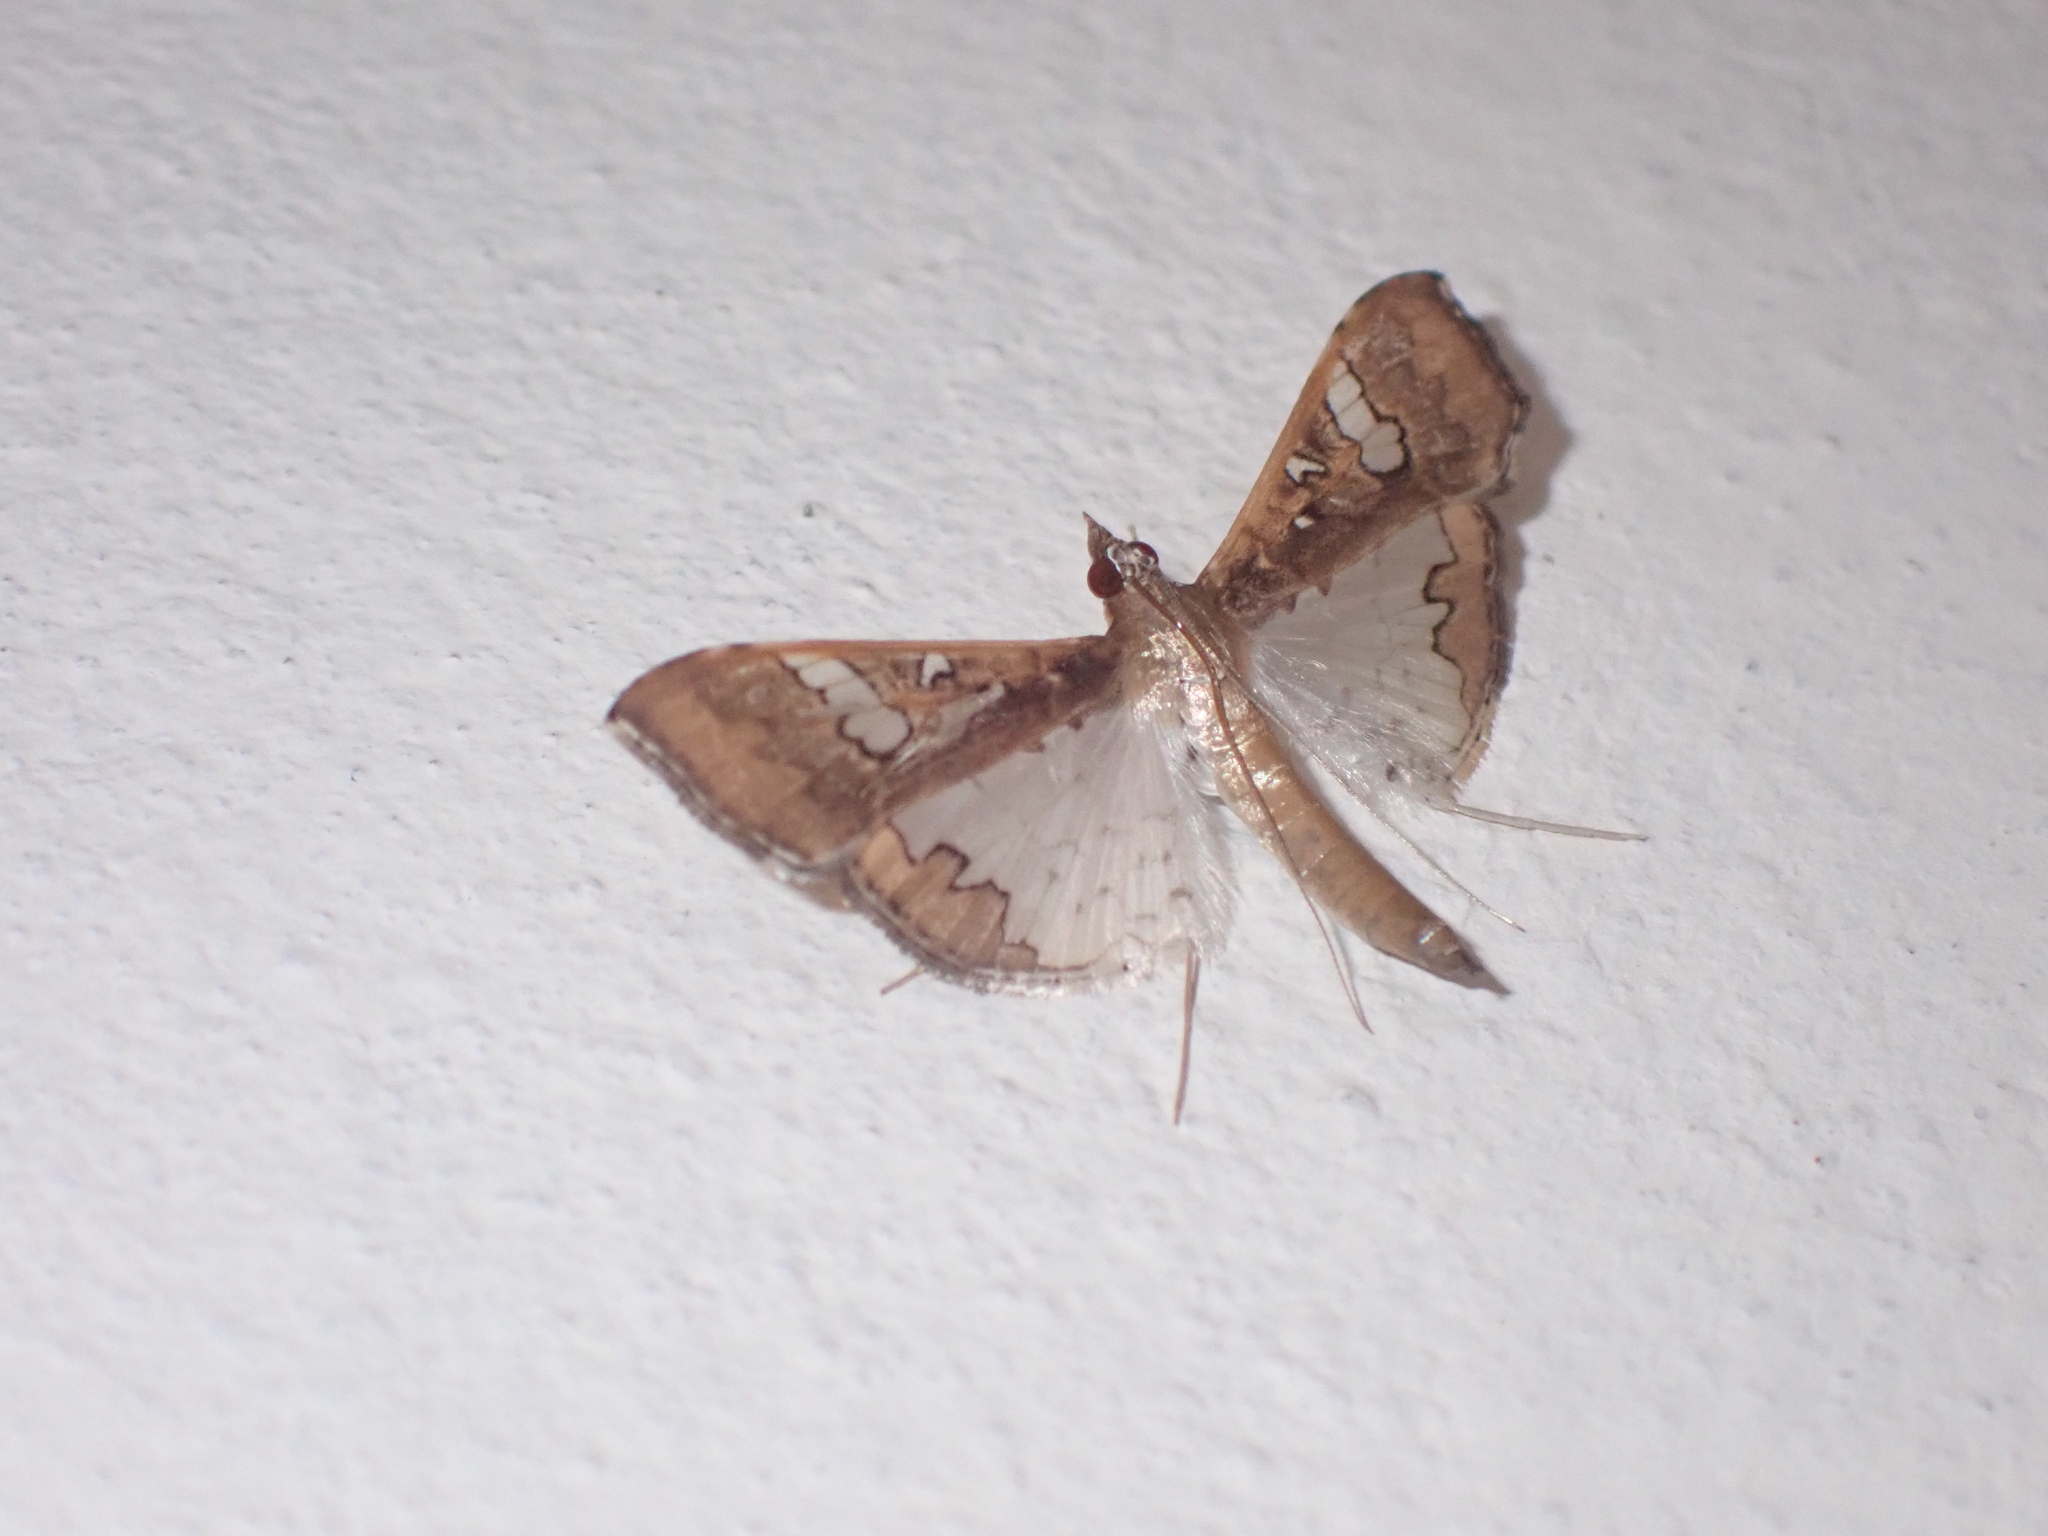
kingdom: Animalia
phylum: Arthropoda
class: Insecta
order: Lepidoptera
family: Crambidae
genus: Maruca
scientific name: Maruca vitrata
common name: Maruca pod borer
